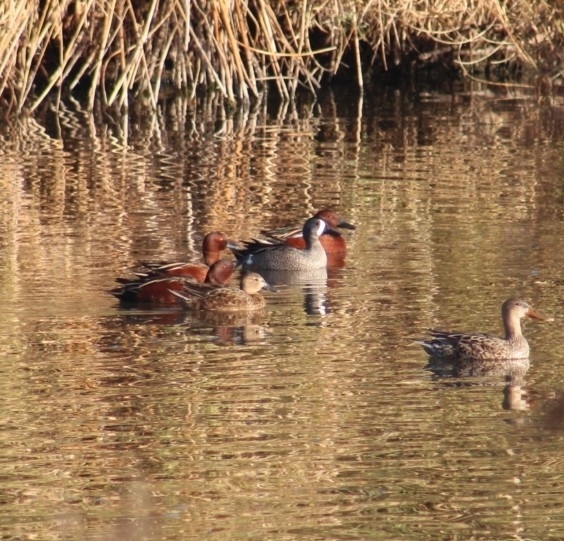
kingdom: Animalia
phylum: Chordata
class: Aves
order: Anseriformes
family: Anatidae
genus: Spatula
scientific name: Spatula discors
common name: Blue-winged teal
